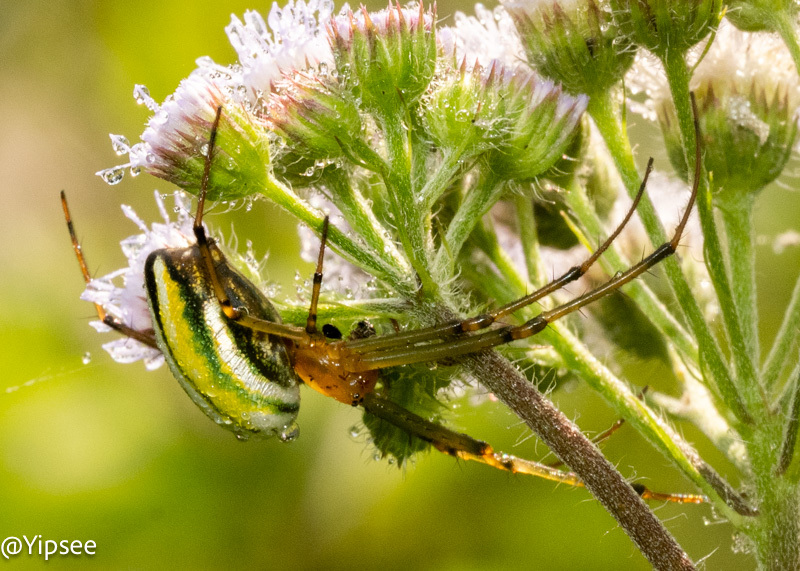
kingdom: Animalia
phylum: Arthropoda
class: Arachnida
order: Araneae
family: Tetragnathidae
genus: Leucauge
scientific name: Leucauge celebesiana
